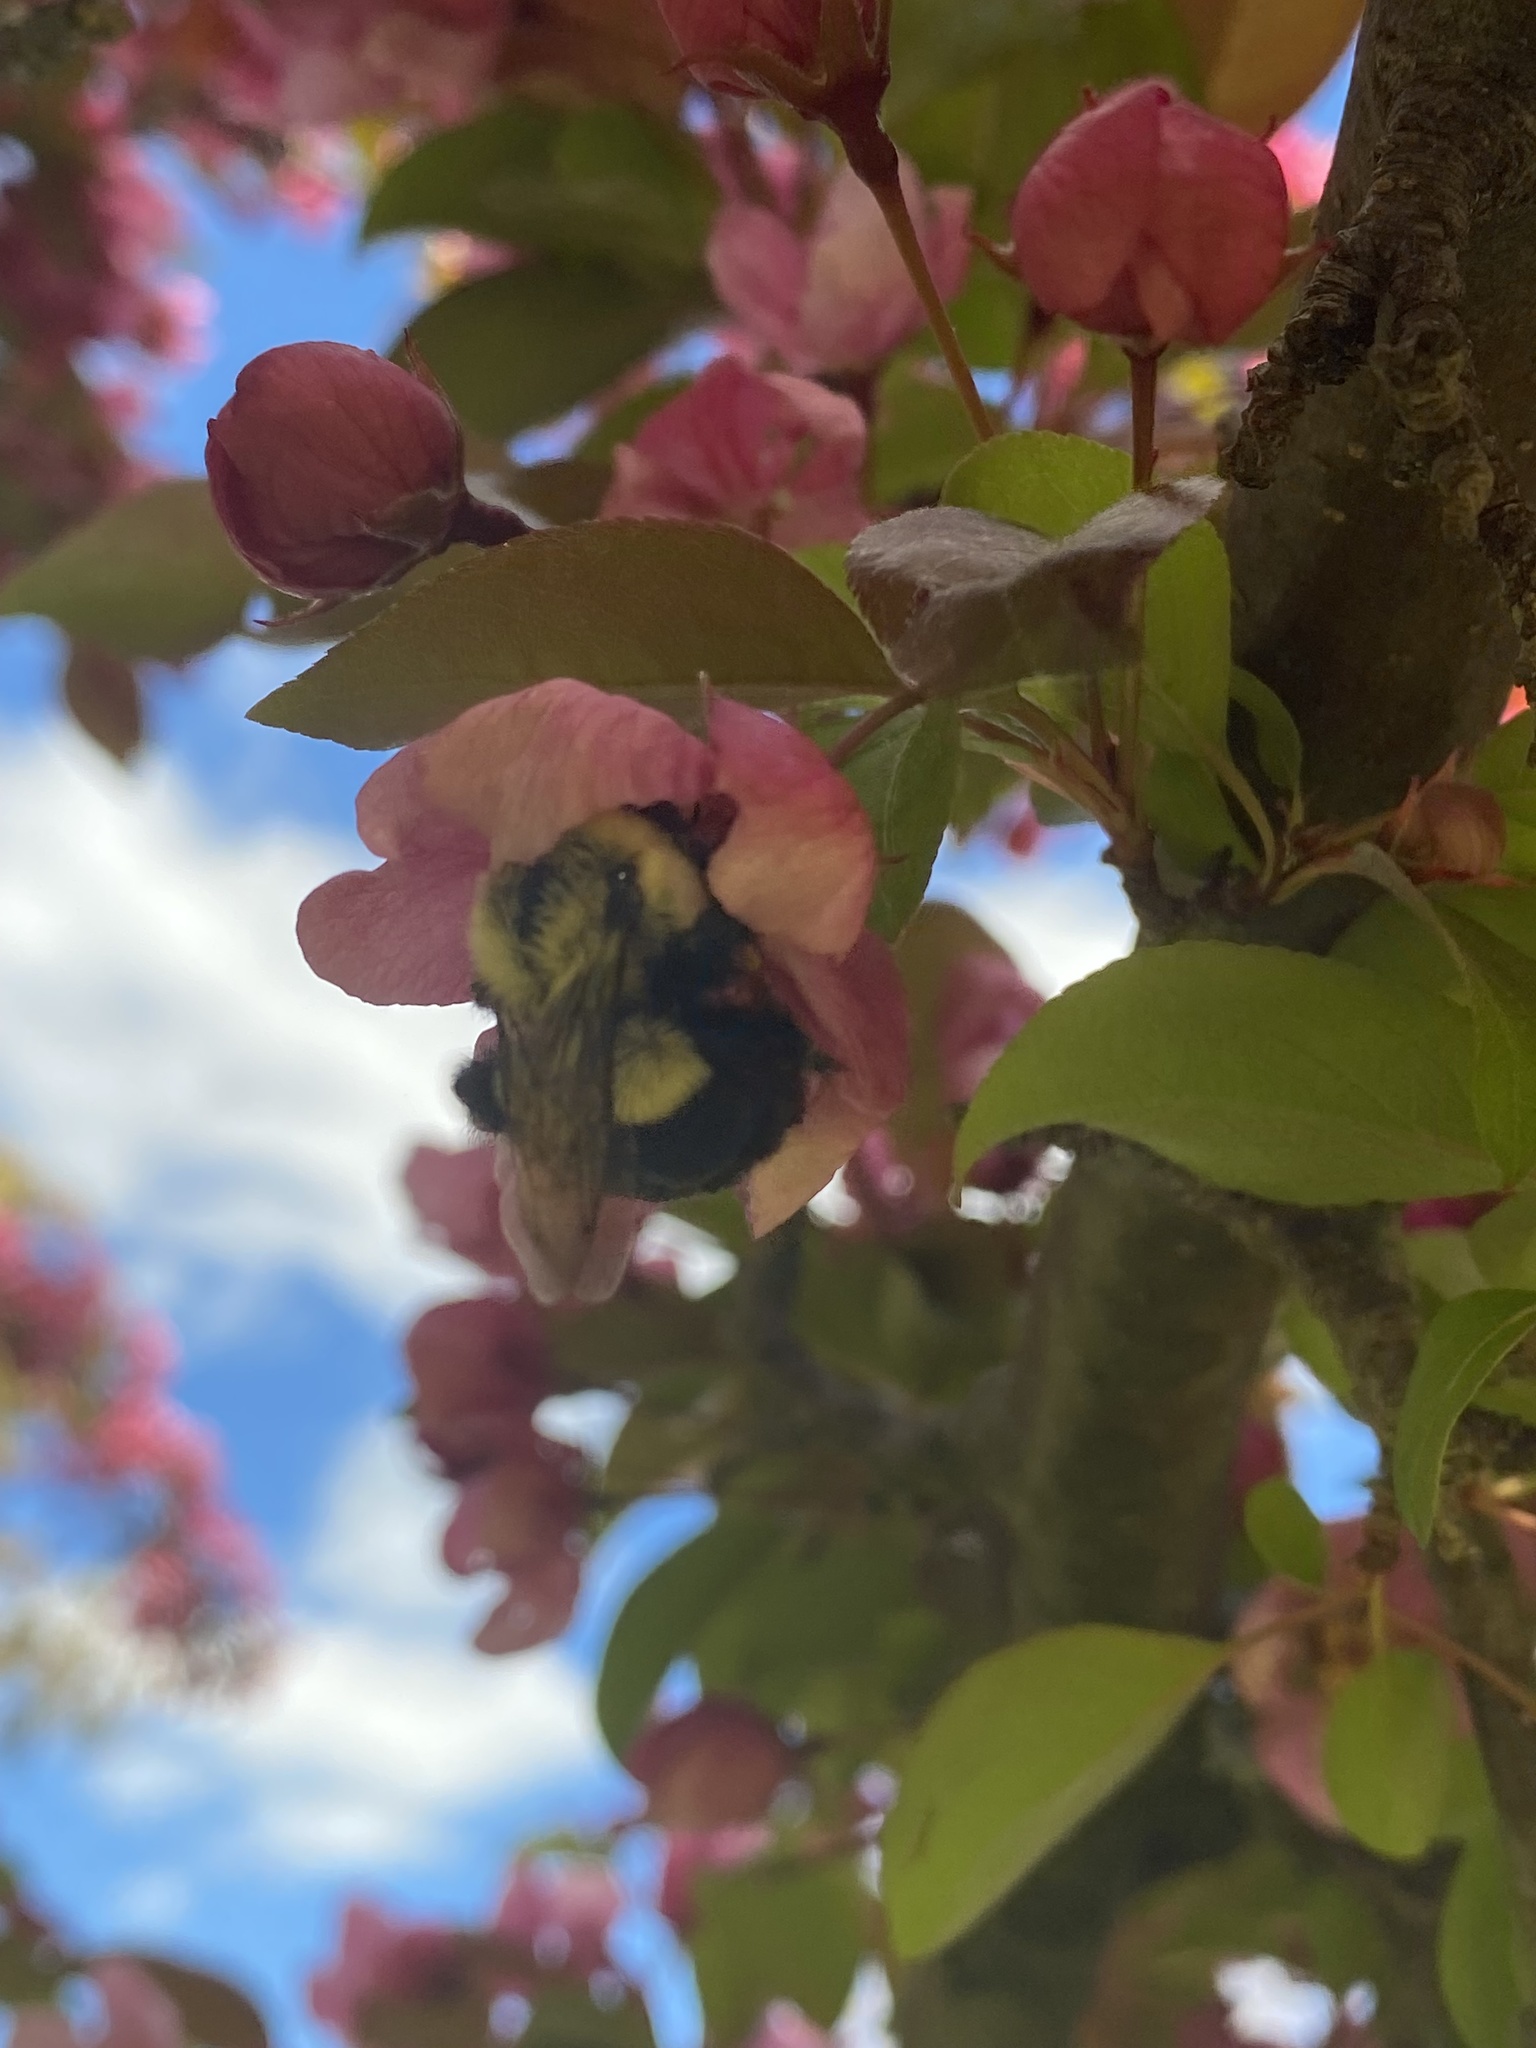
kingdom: Animalia
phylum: Arthropoda
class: Insecta
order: Hymenoptera
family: Apidae
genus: Bombus
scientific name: Bombus impatiens
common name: Common eastern bumble bee
